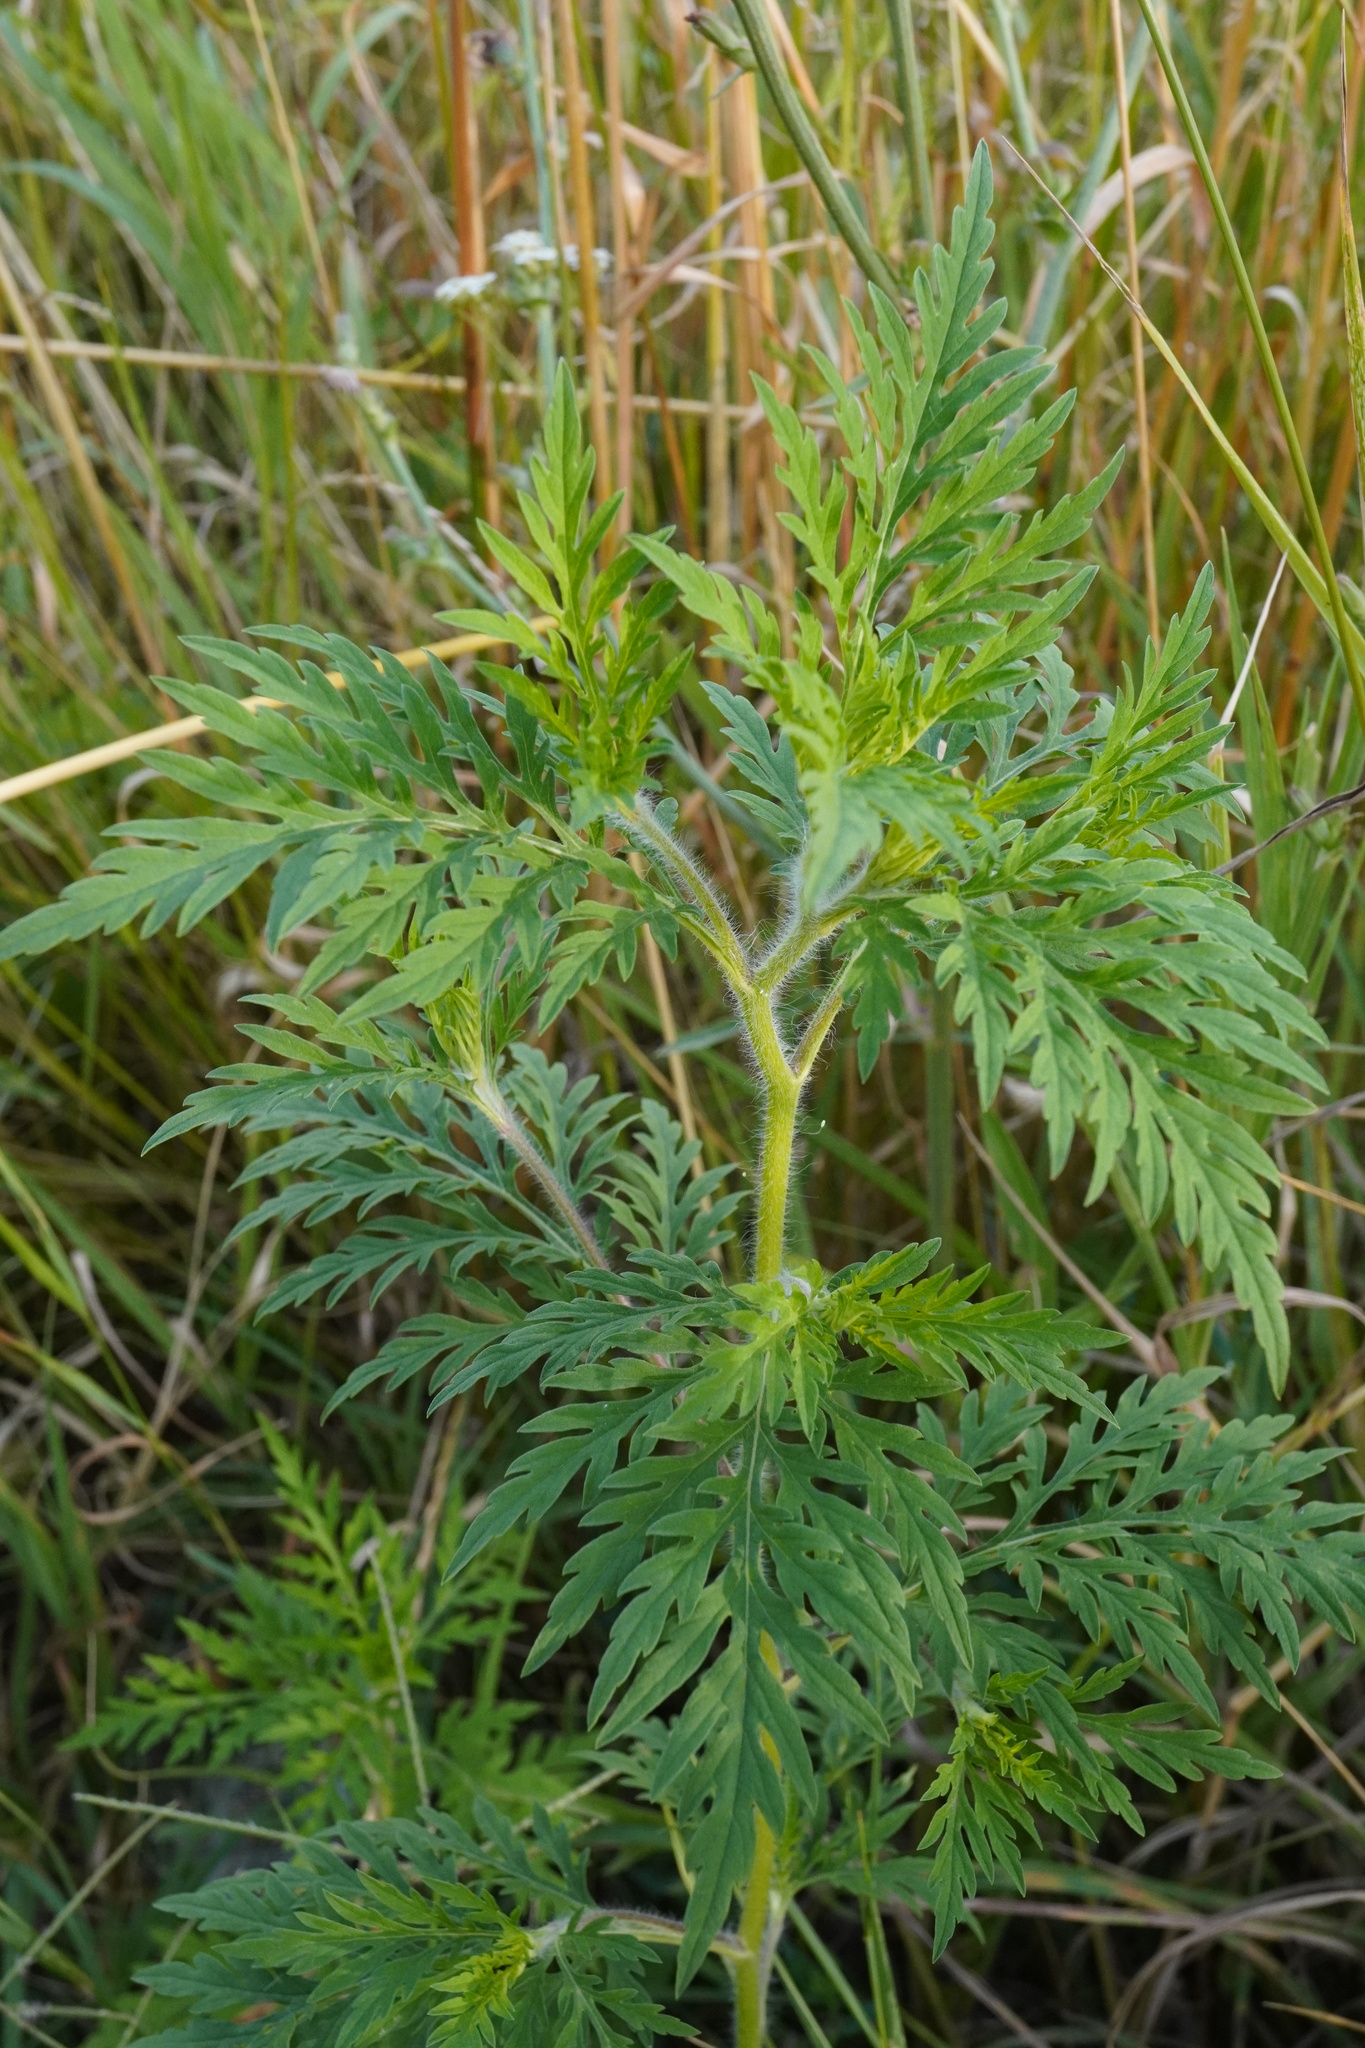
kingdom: Plantae
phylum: Tracheophyta
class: Magnoliopsida
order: Asterales
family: Asteraceae
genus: Ambrosia
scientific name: Ambrosia artemisiifolia
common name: Annual ragweed
